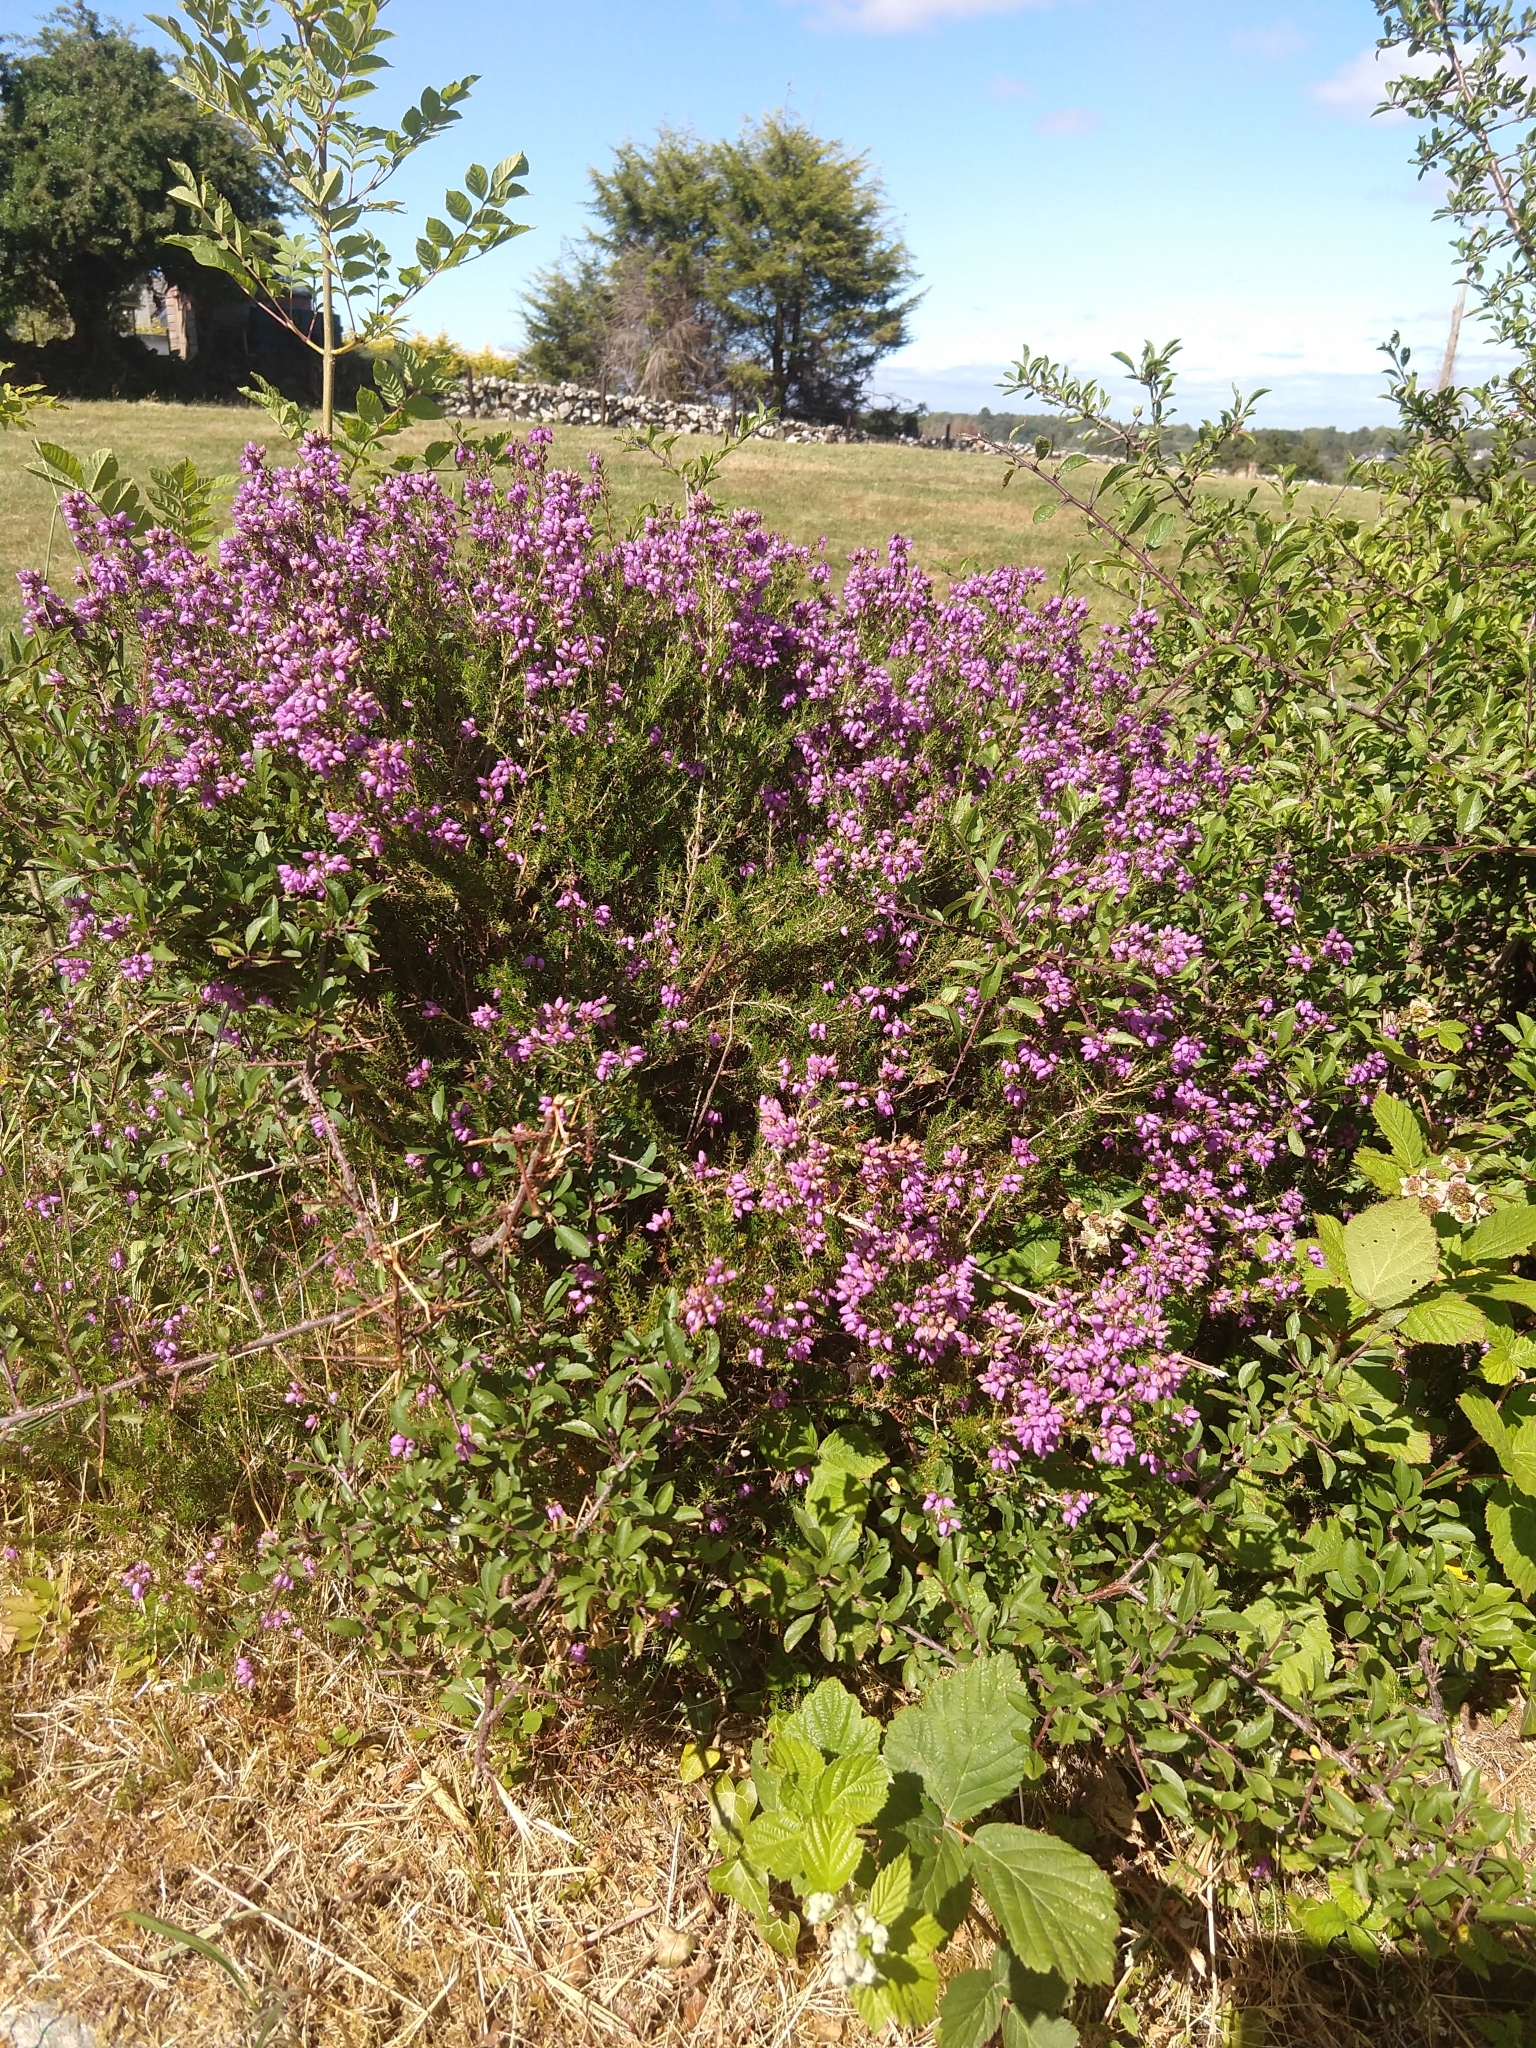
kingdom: Plantae
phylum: Tracheophyta
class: Magnoliopsida
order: Ericales
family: Ericaceae
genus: Erica
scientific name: Erica cinerea
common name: Bell heather
